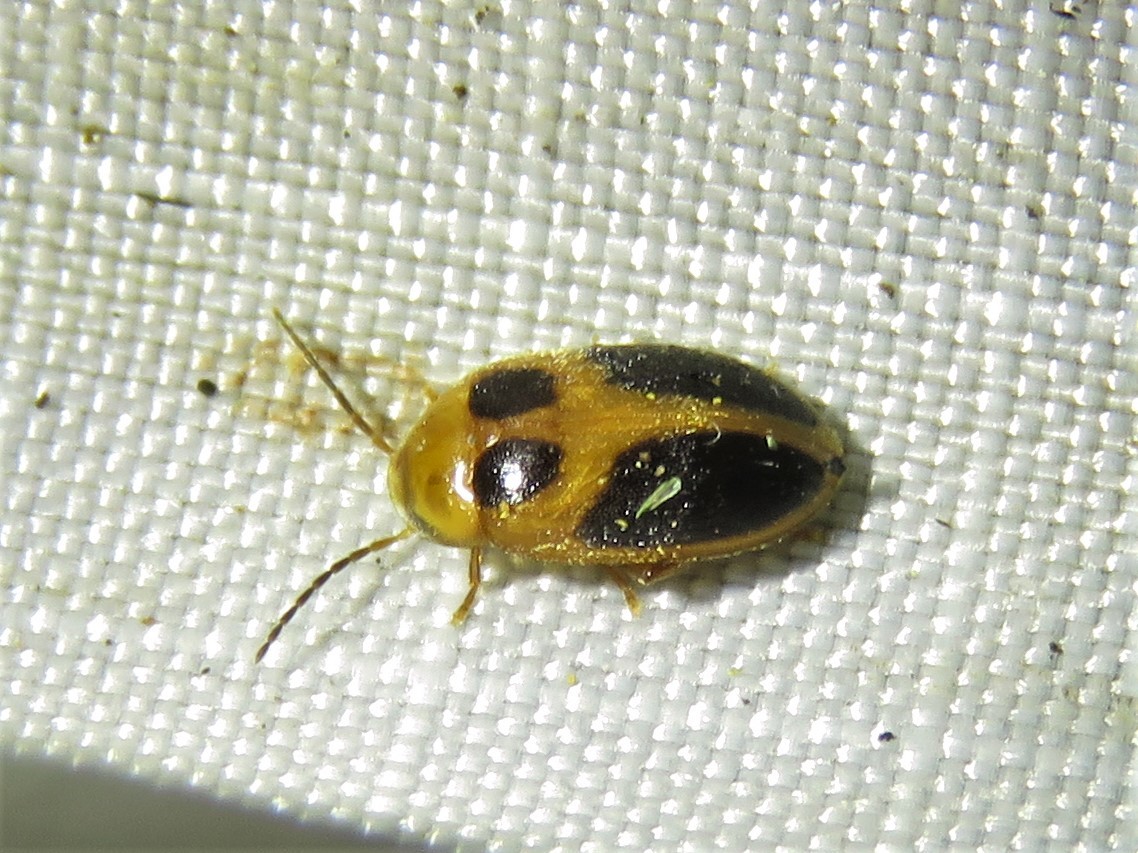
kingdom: Animalia
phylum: Arthropoda
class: Insecta
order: Coleoptera
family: Scirtidae
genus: Sacodes
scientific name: Sacodes pulchella
